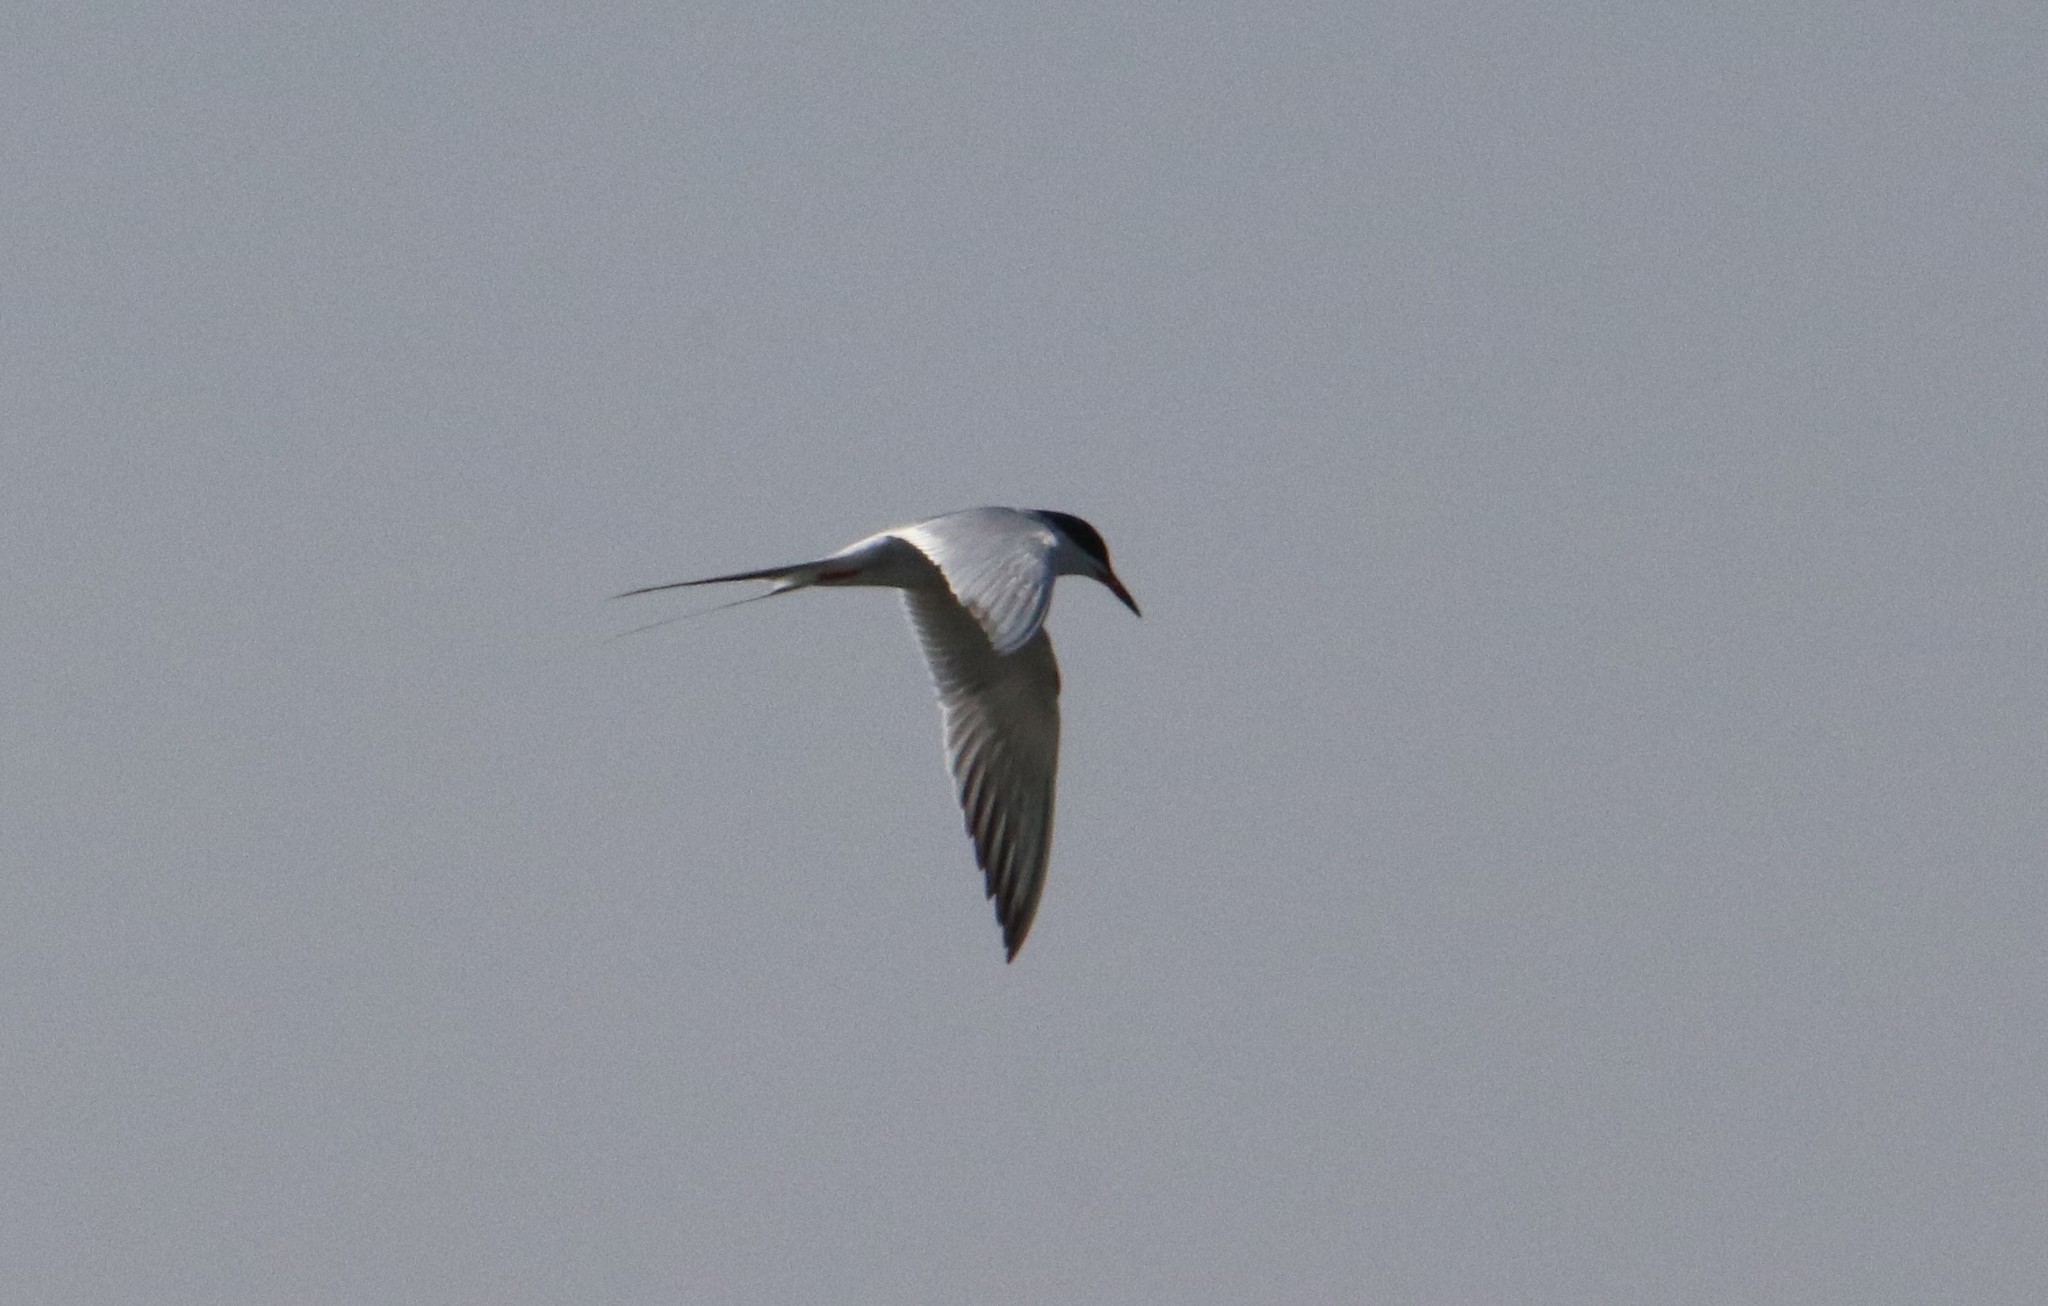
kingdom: Animalia
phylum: Chordata
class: Aves
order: Charadriiformes
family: Laridae
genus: Sterna
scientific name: Sterna forsteri
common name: Forster's tern
